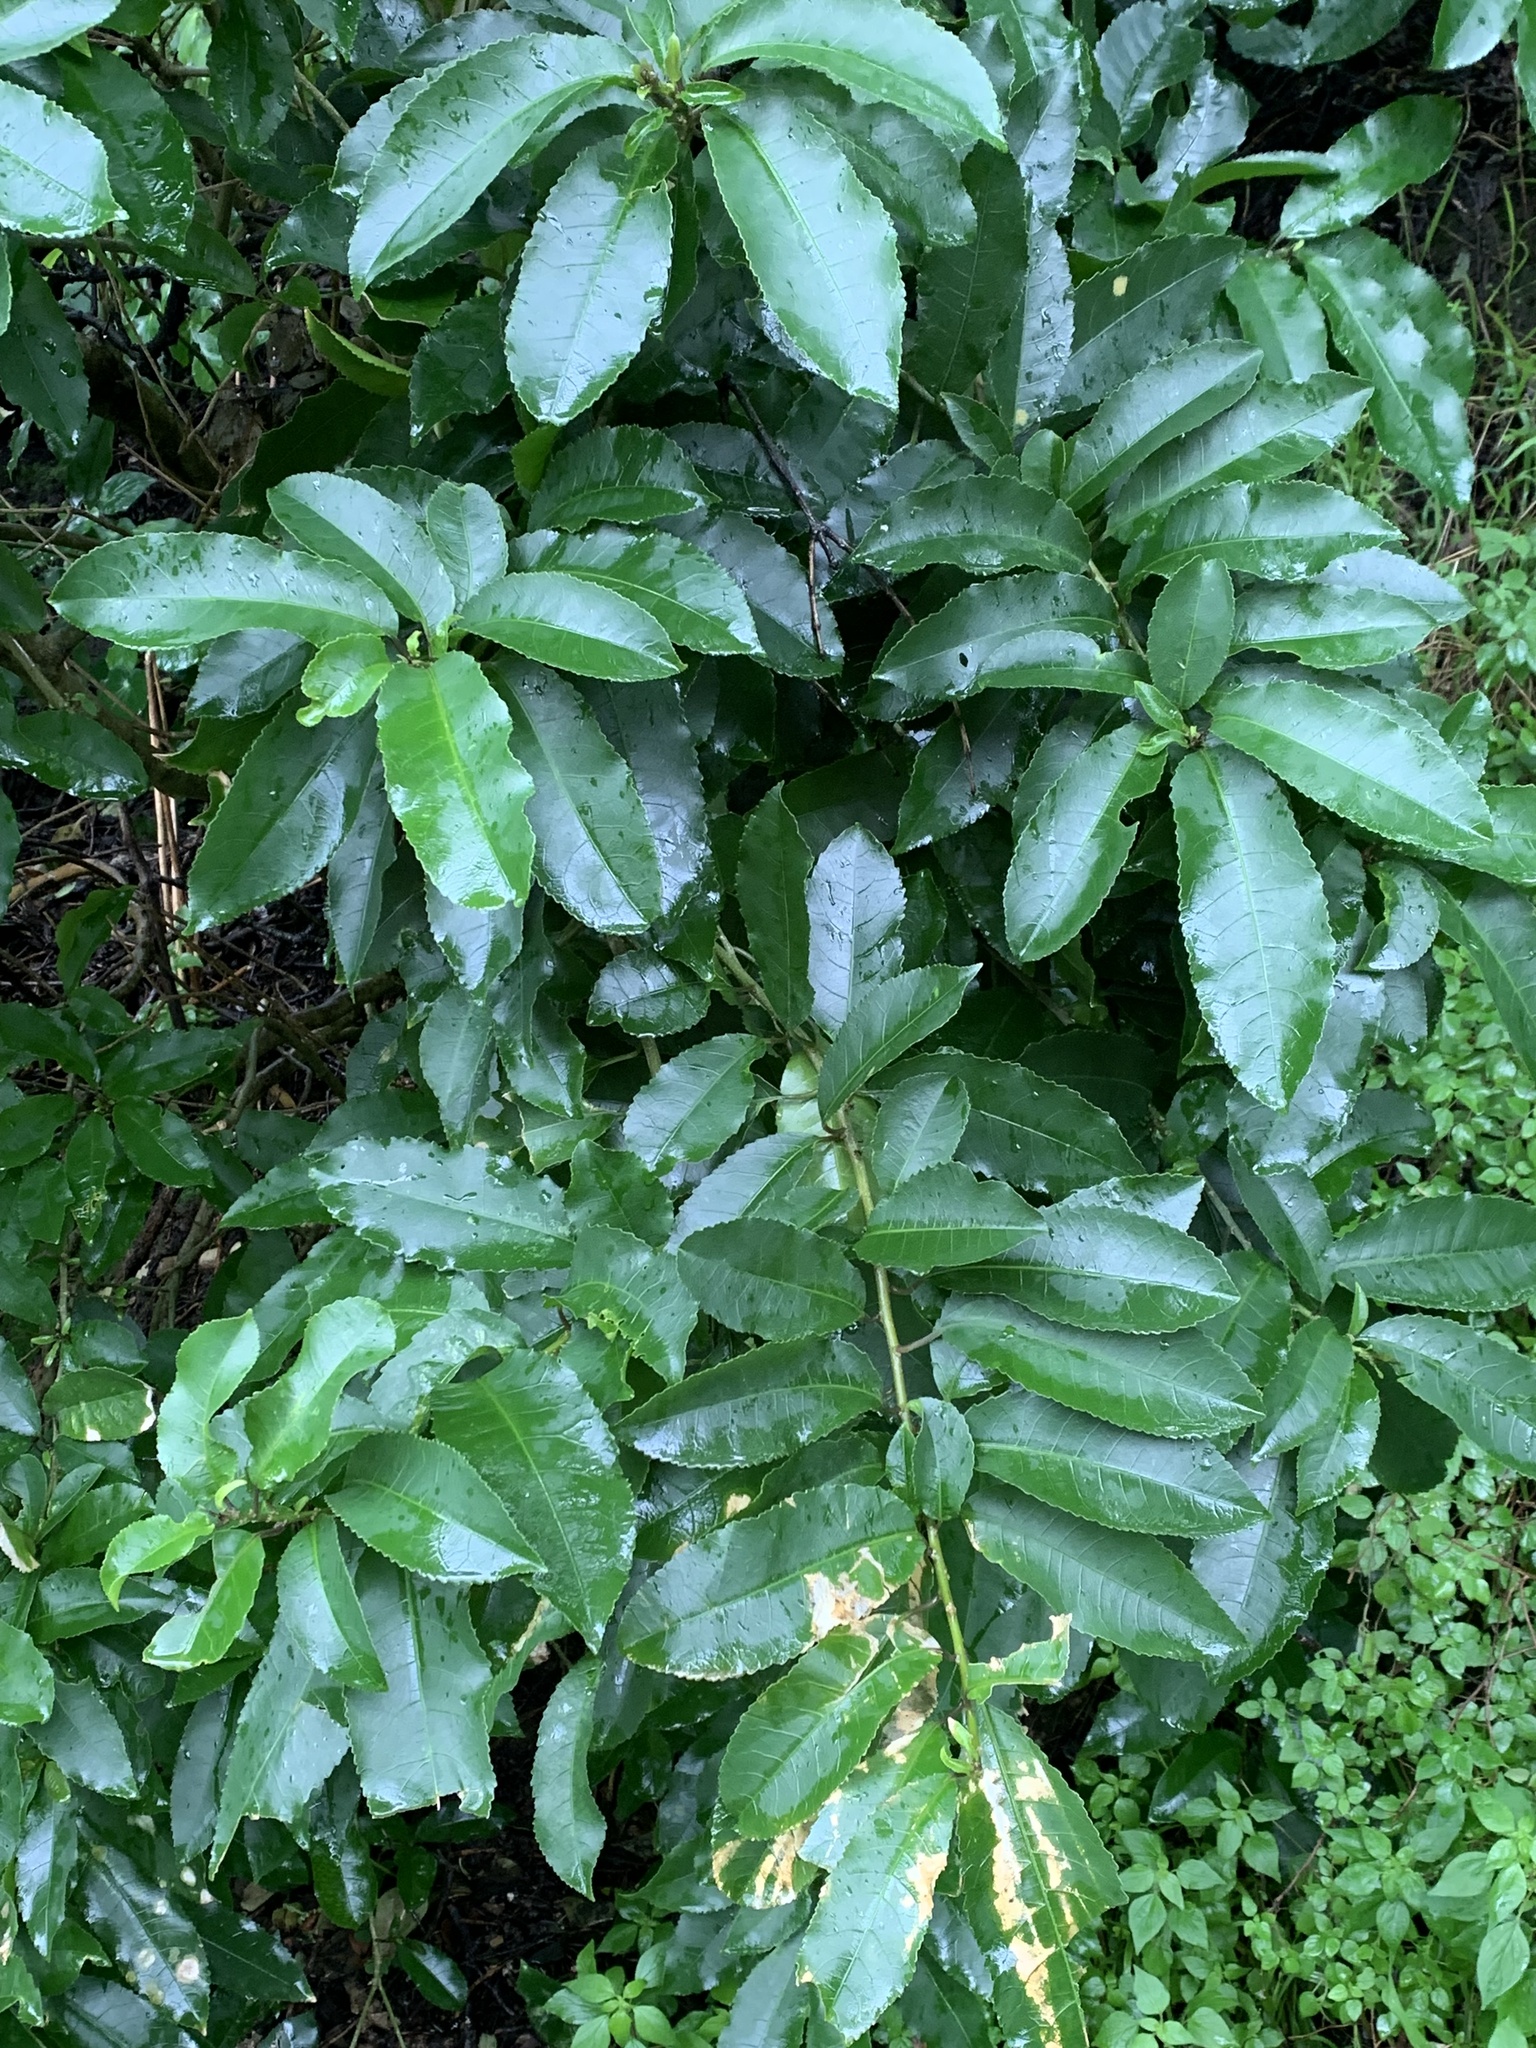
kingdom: Plantae
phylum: Tracheophyta
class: Magnoliopsida
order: Malpighiales
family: Violaceae
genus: Melicytus
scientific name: Melicytus ramiflorus
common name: Mahoe
